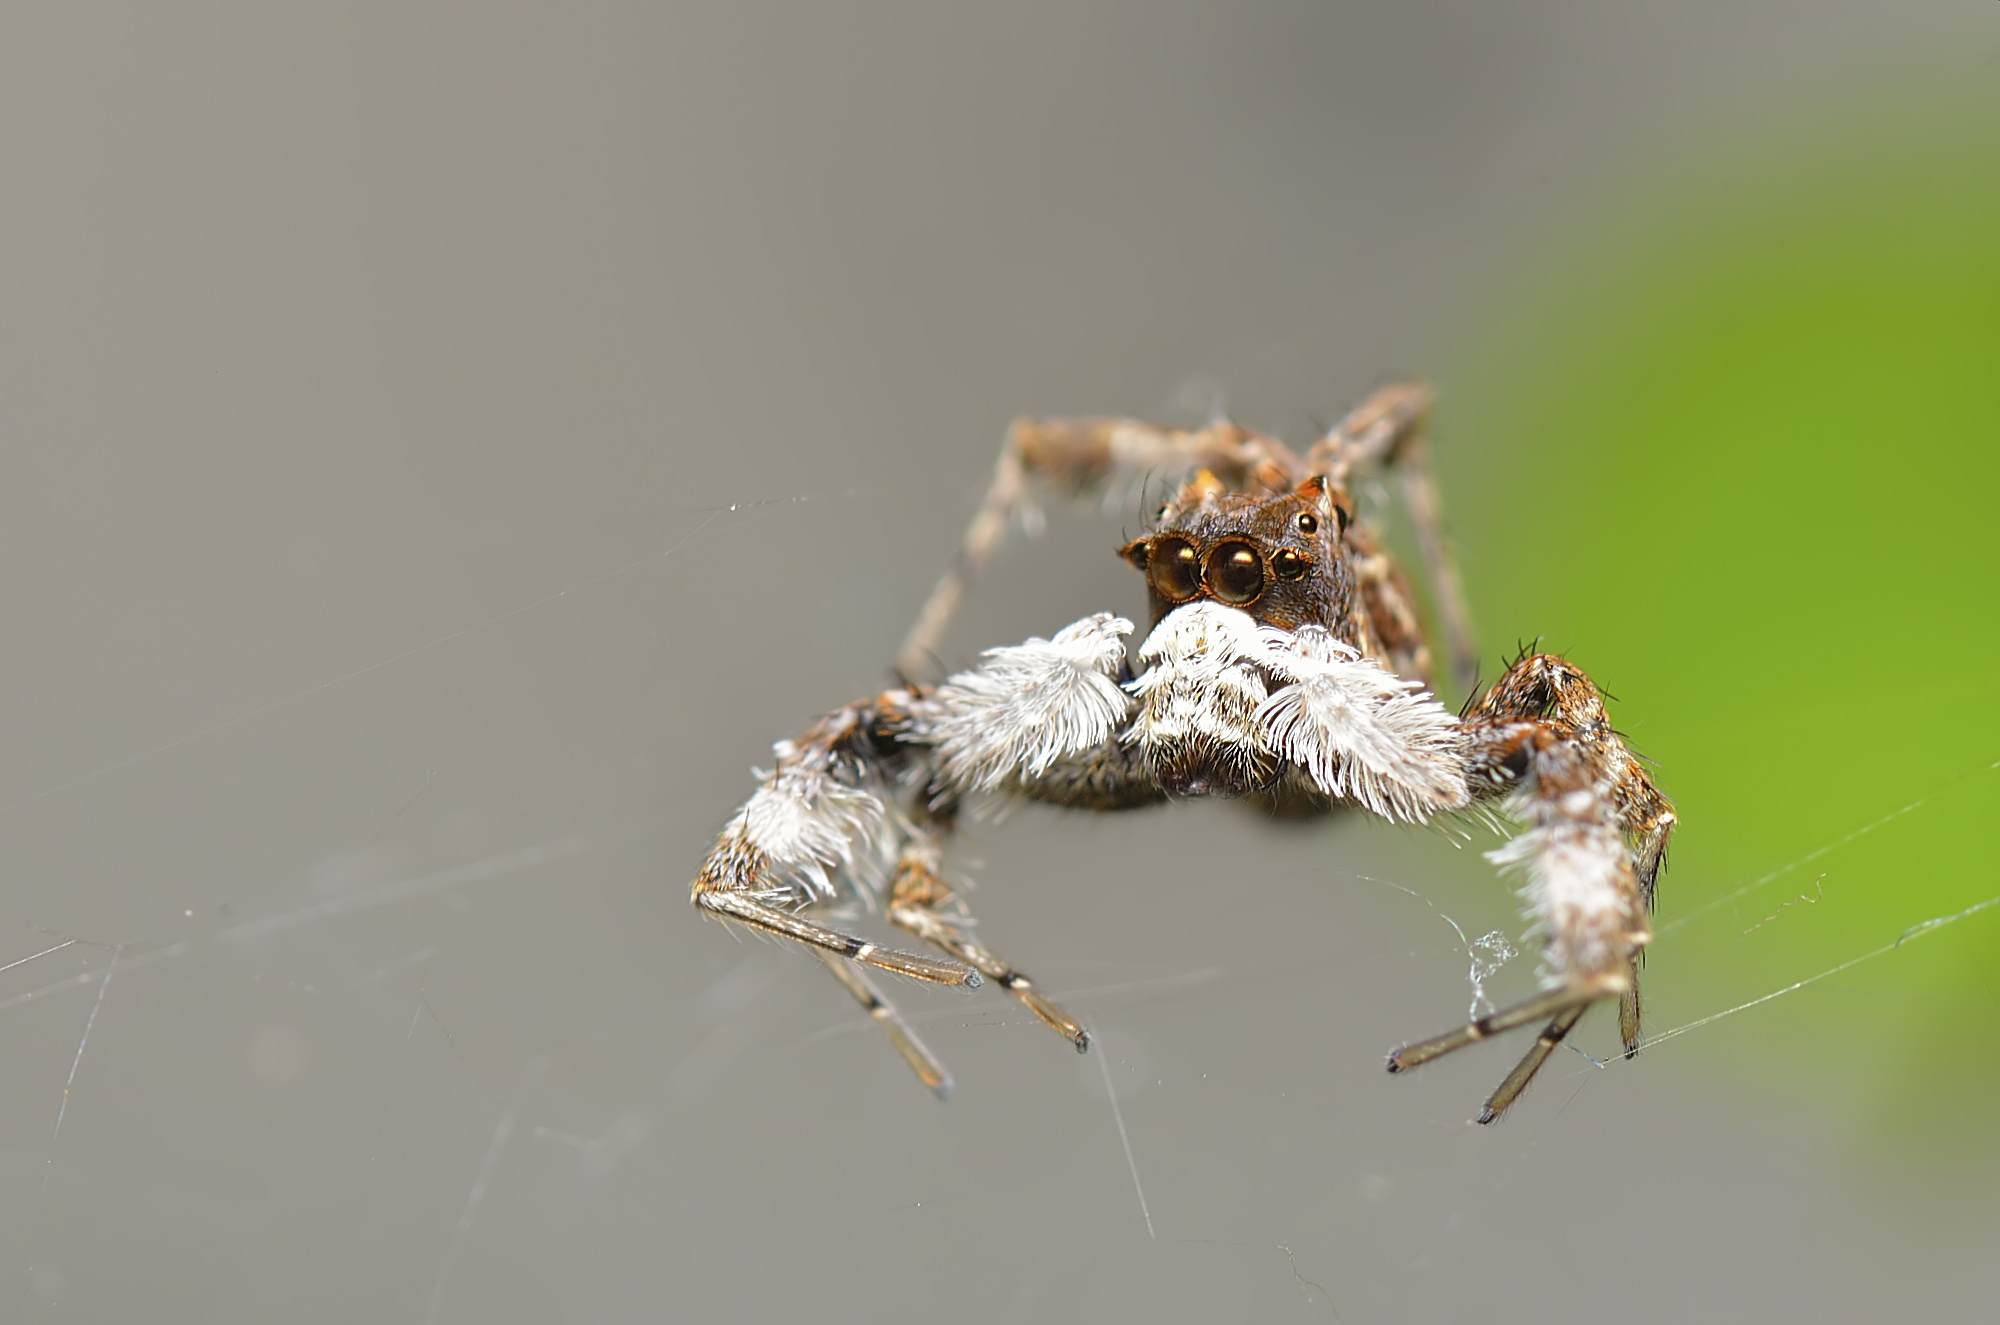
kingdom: Animalia
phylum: Arthropoda
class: Arachnida
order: Araneae
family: Salticidae
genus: Portia
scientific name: Portia labiata
